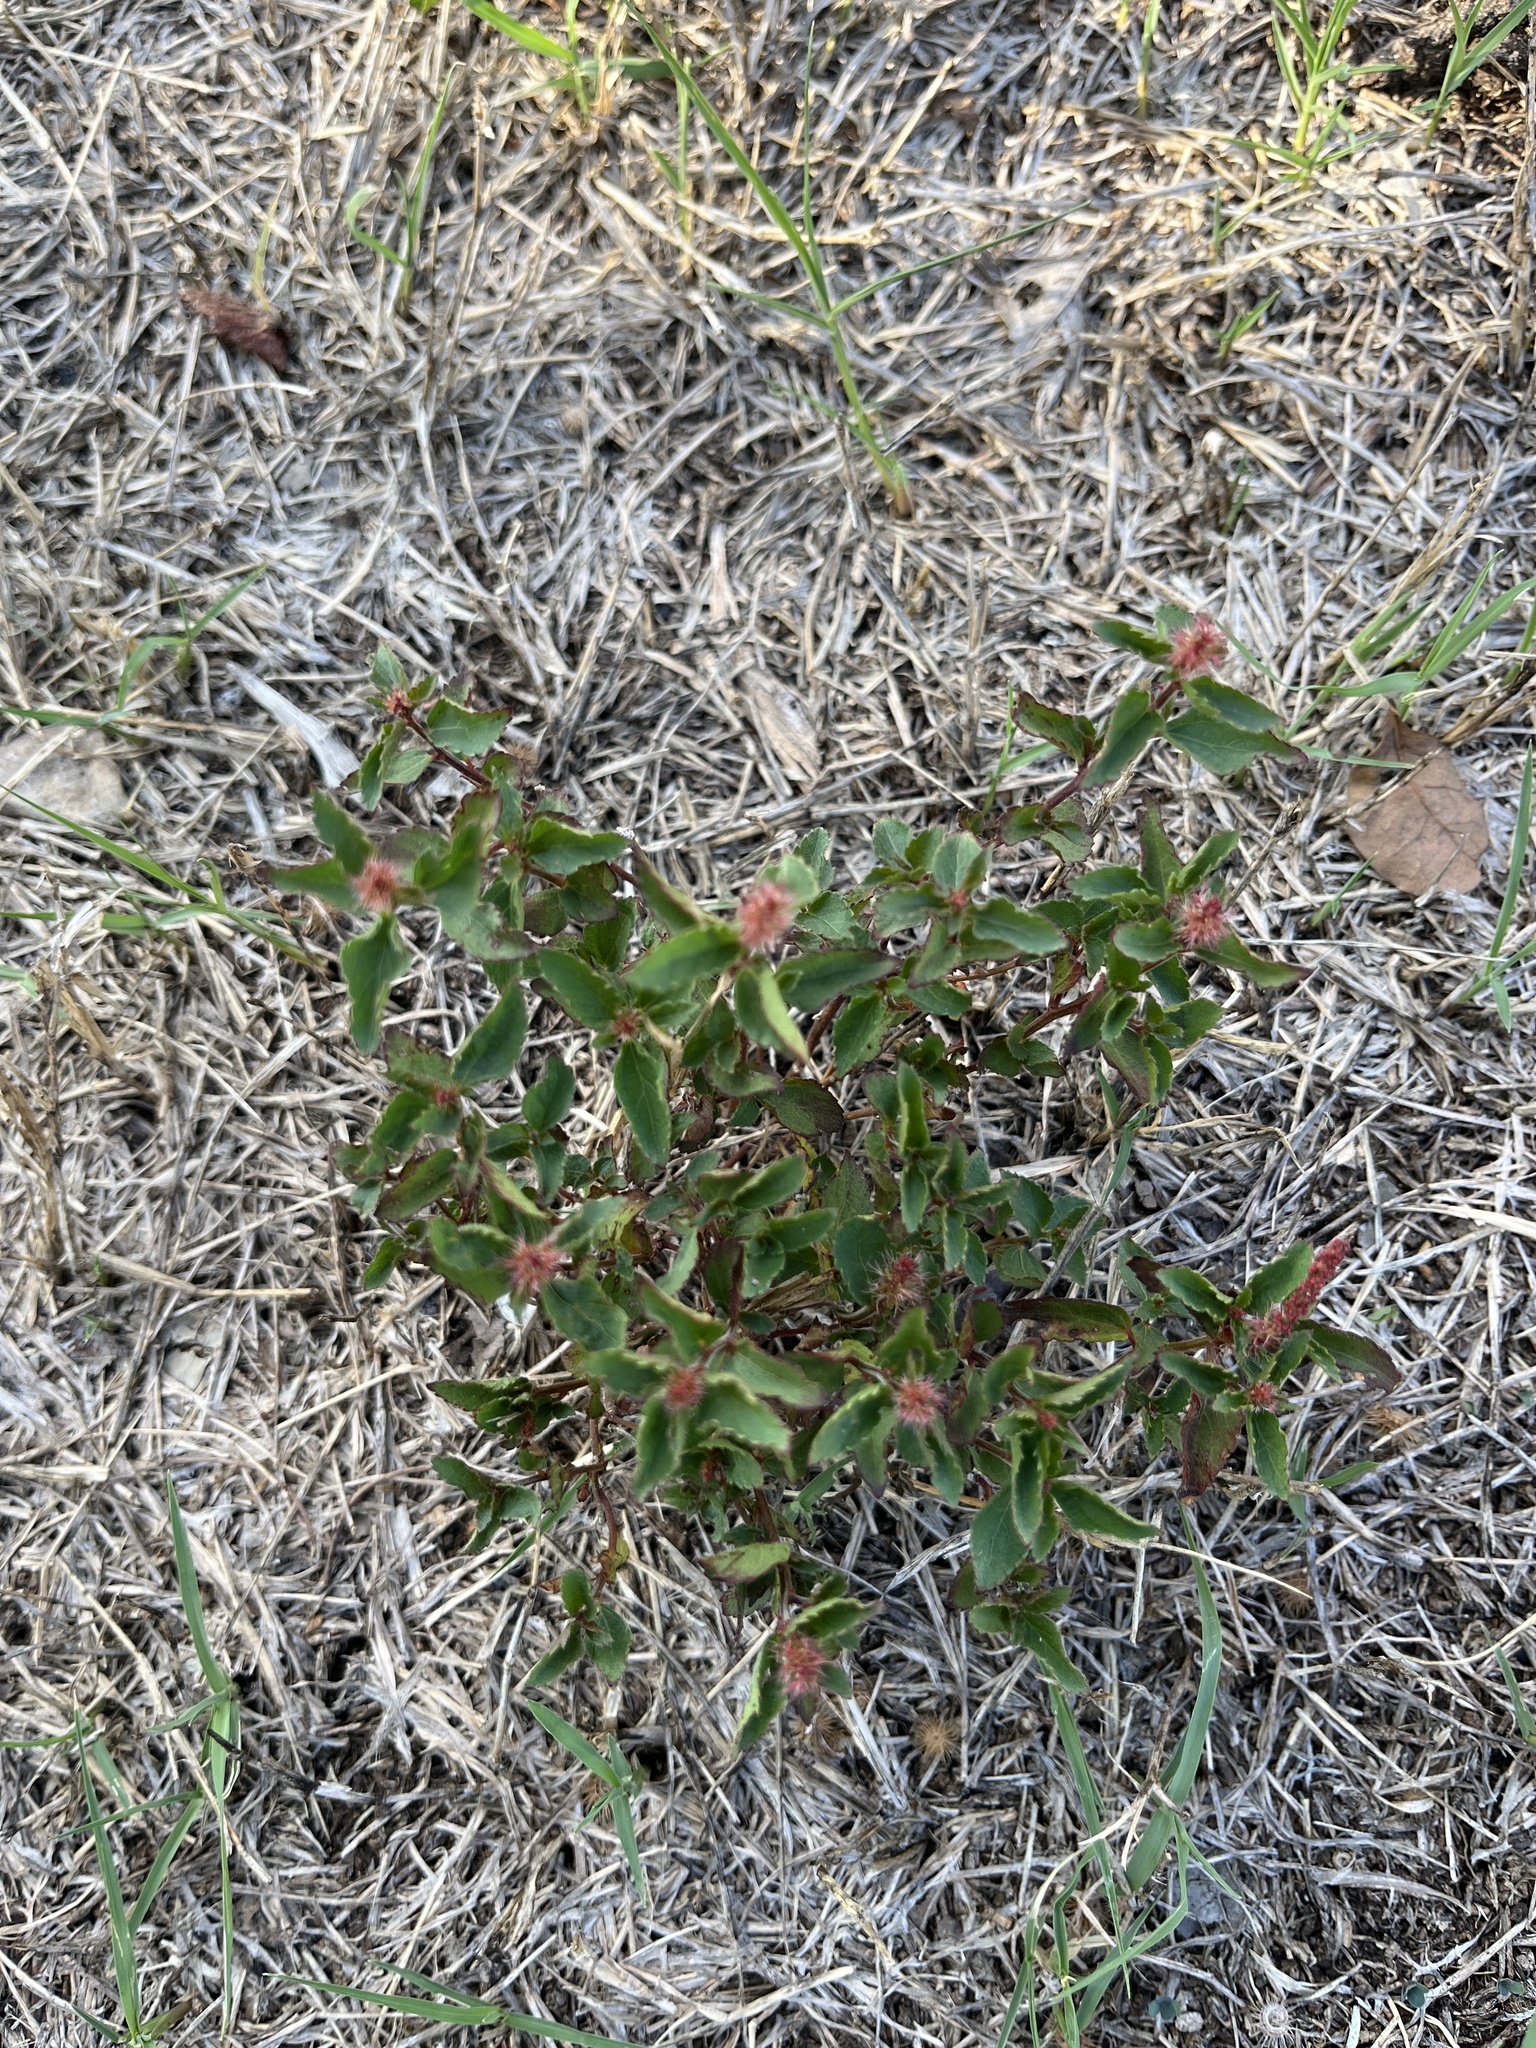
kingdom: Plantae
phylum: Tracheophyta
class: Magnoliopsida
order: Malpighiales
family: Euphorbiaceae
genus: Acalypha
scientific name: Acalypha phleoides
